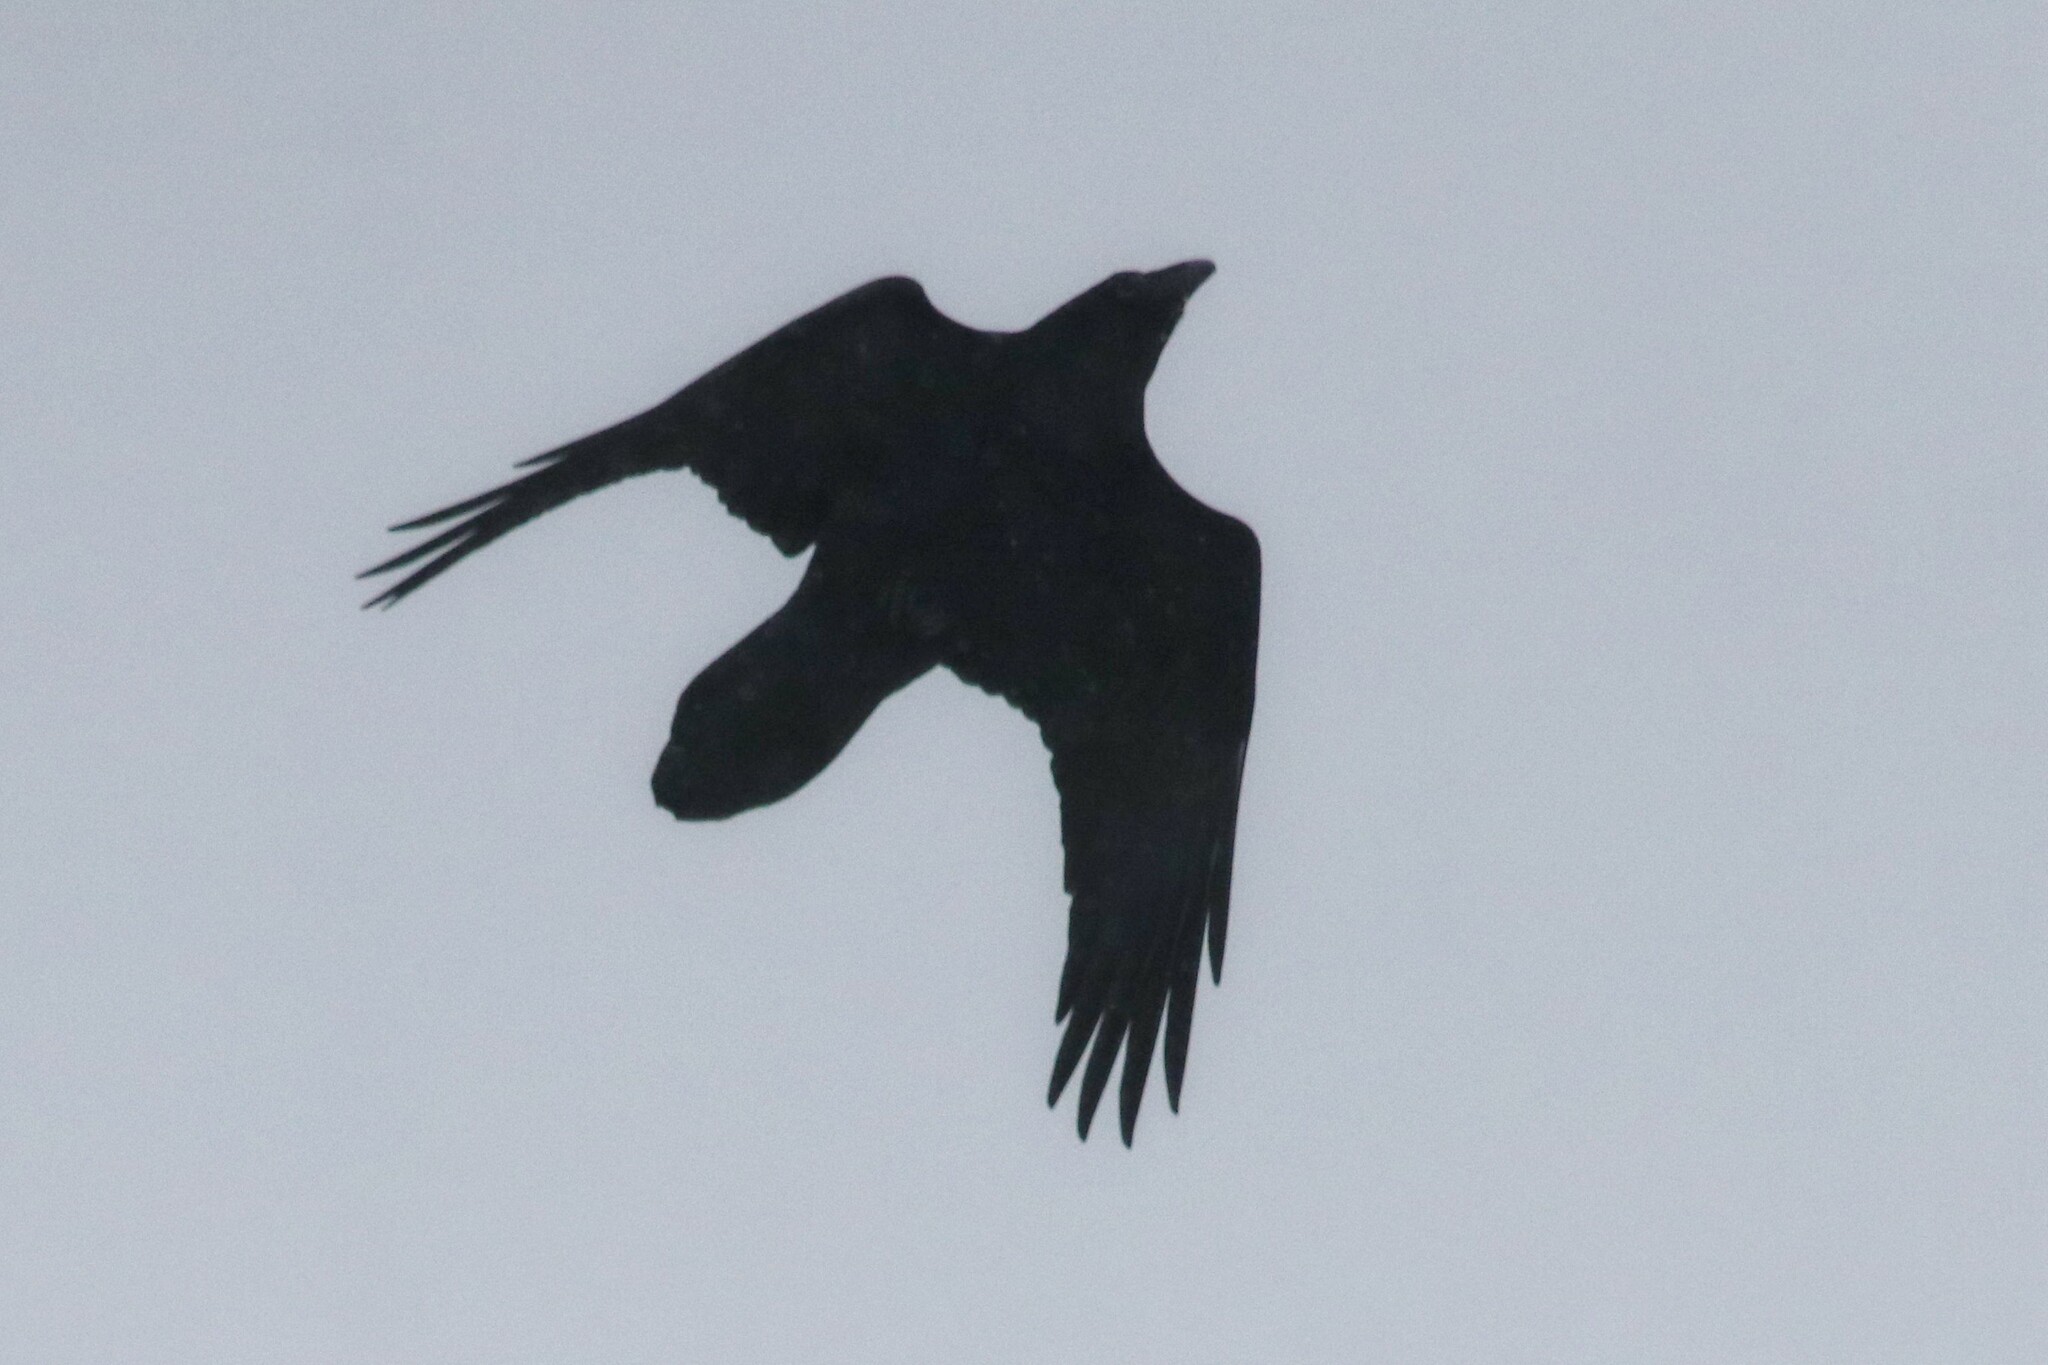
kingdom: Animalia
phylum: Chordata
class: Aves
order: Passeriformes
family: Corvidae
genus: Corvus
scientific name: Corvus corax
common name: Common raven
